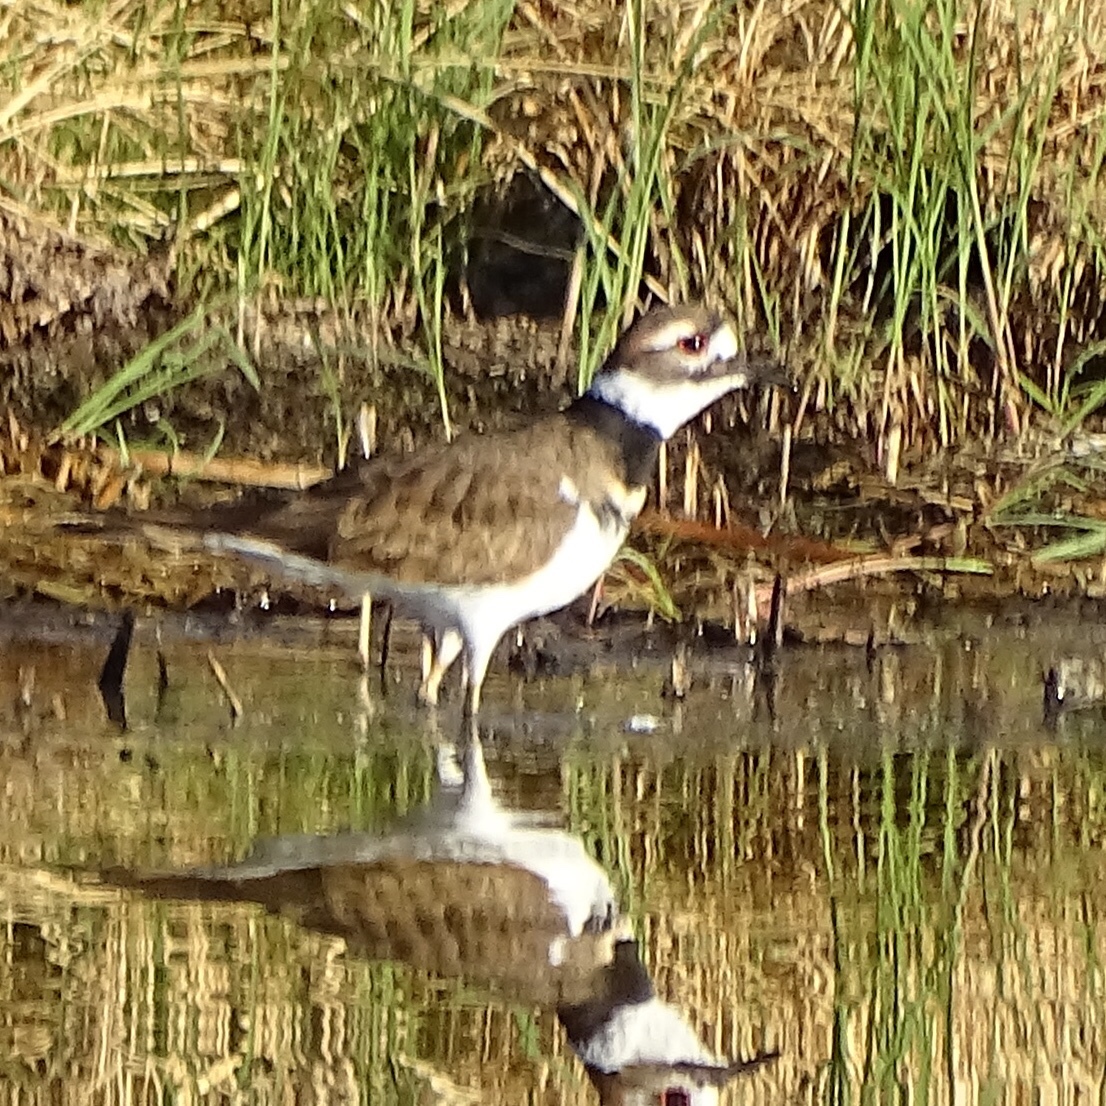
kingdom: Animalia
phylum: Chordata
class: Aves
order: Charadriiformes
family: Charadriidae
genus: Charadrius
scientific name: Charadrius vociferus
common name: Killdeer
